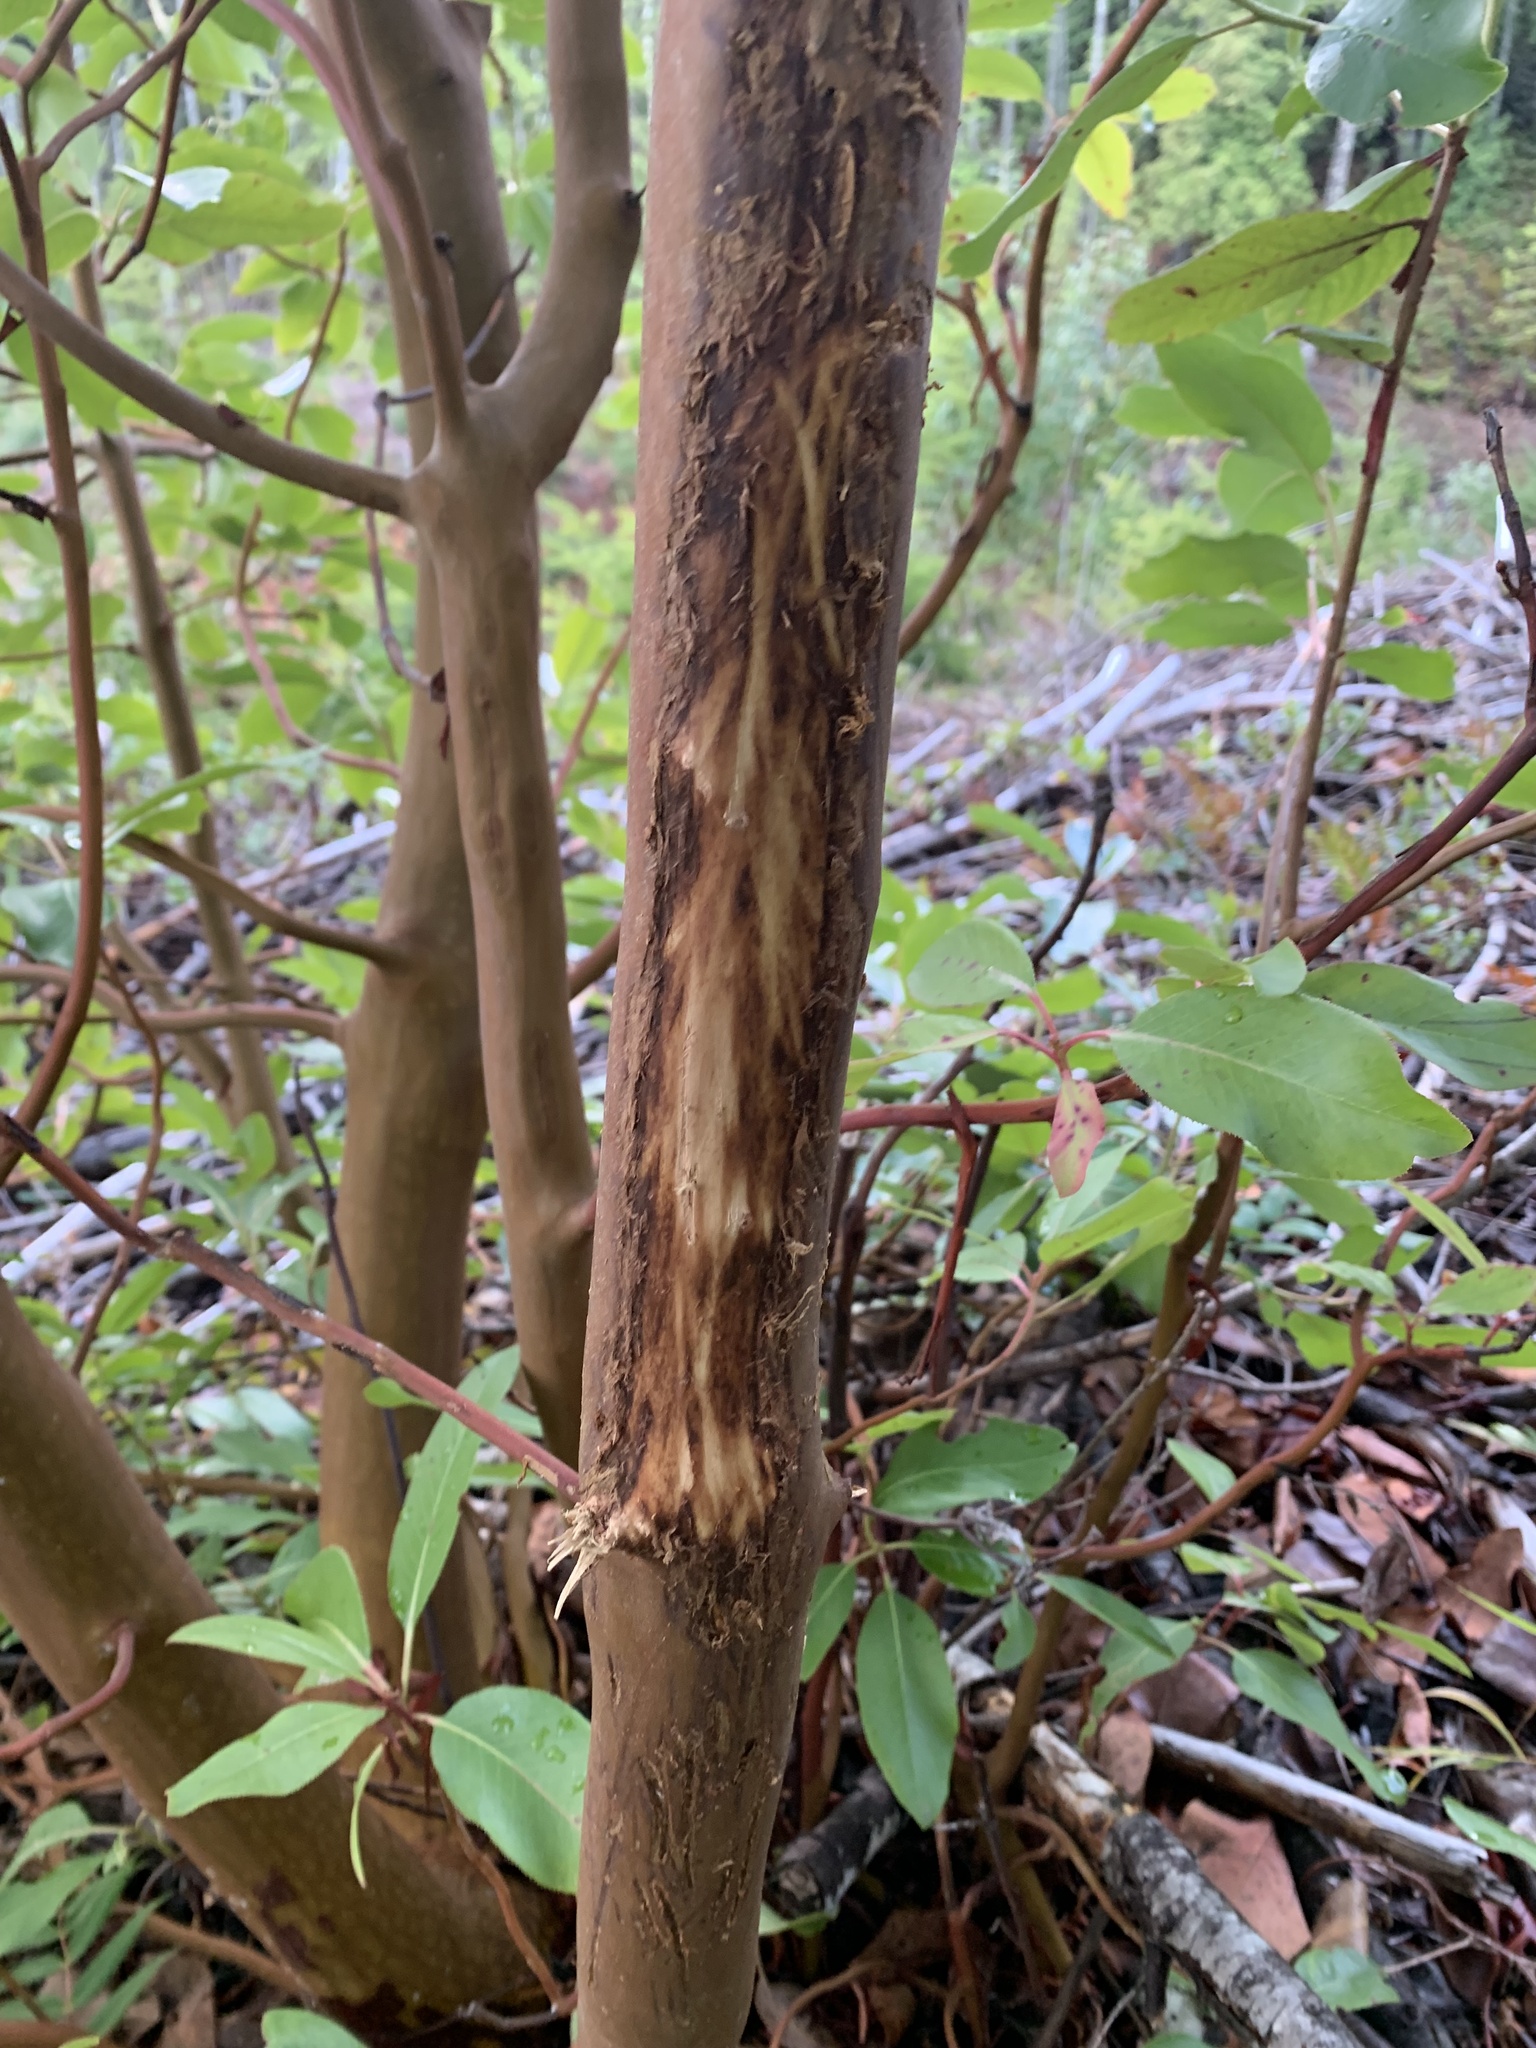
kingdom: Animalia
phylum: Chordata
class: Mammalia
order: Artiodactyla
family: Cervidae
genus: Odocoileus
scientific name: Odocoileus hemionus
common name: Mule deer
